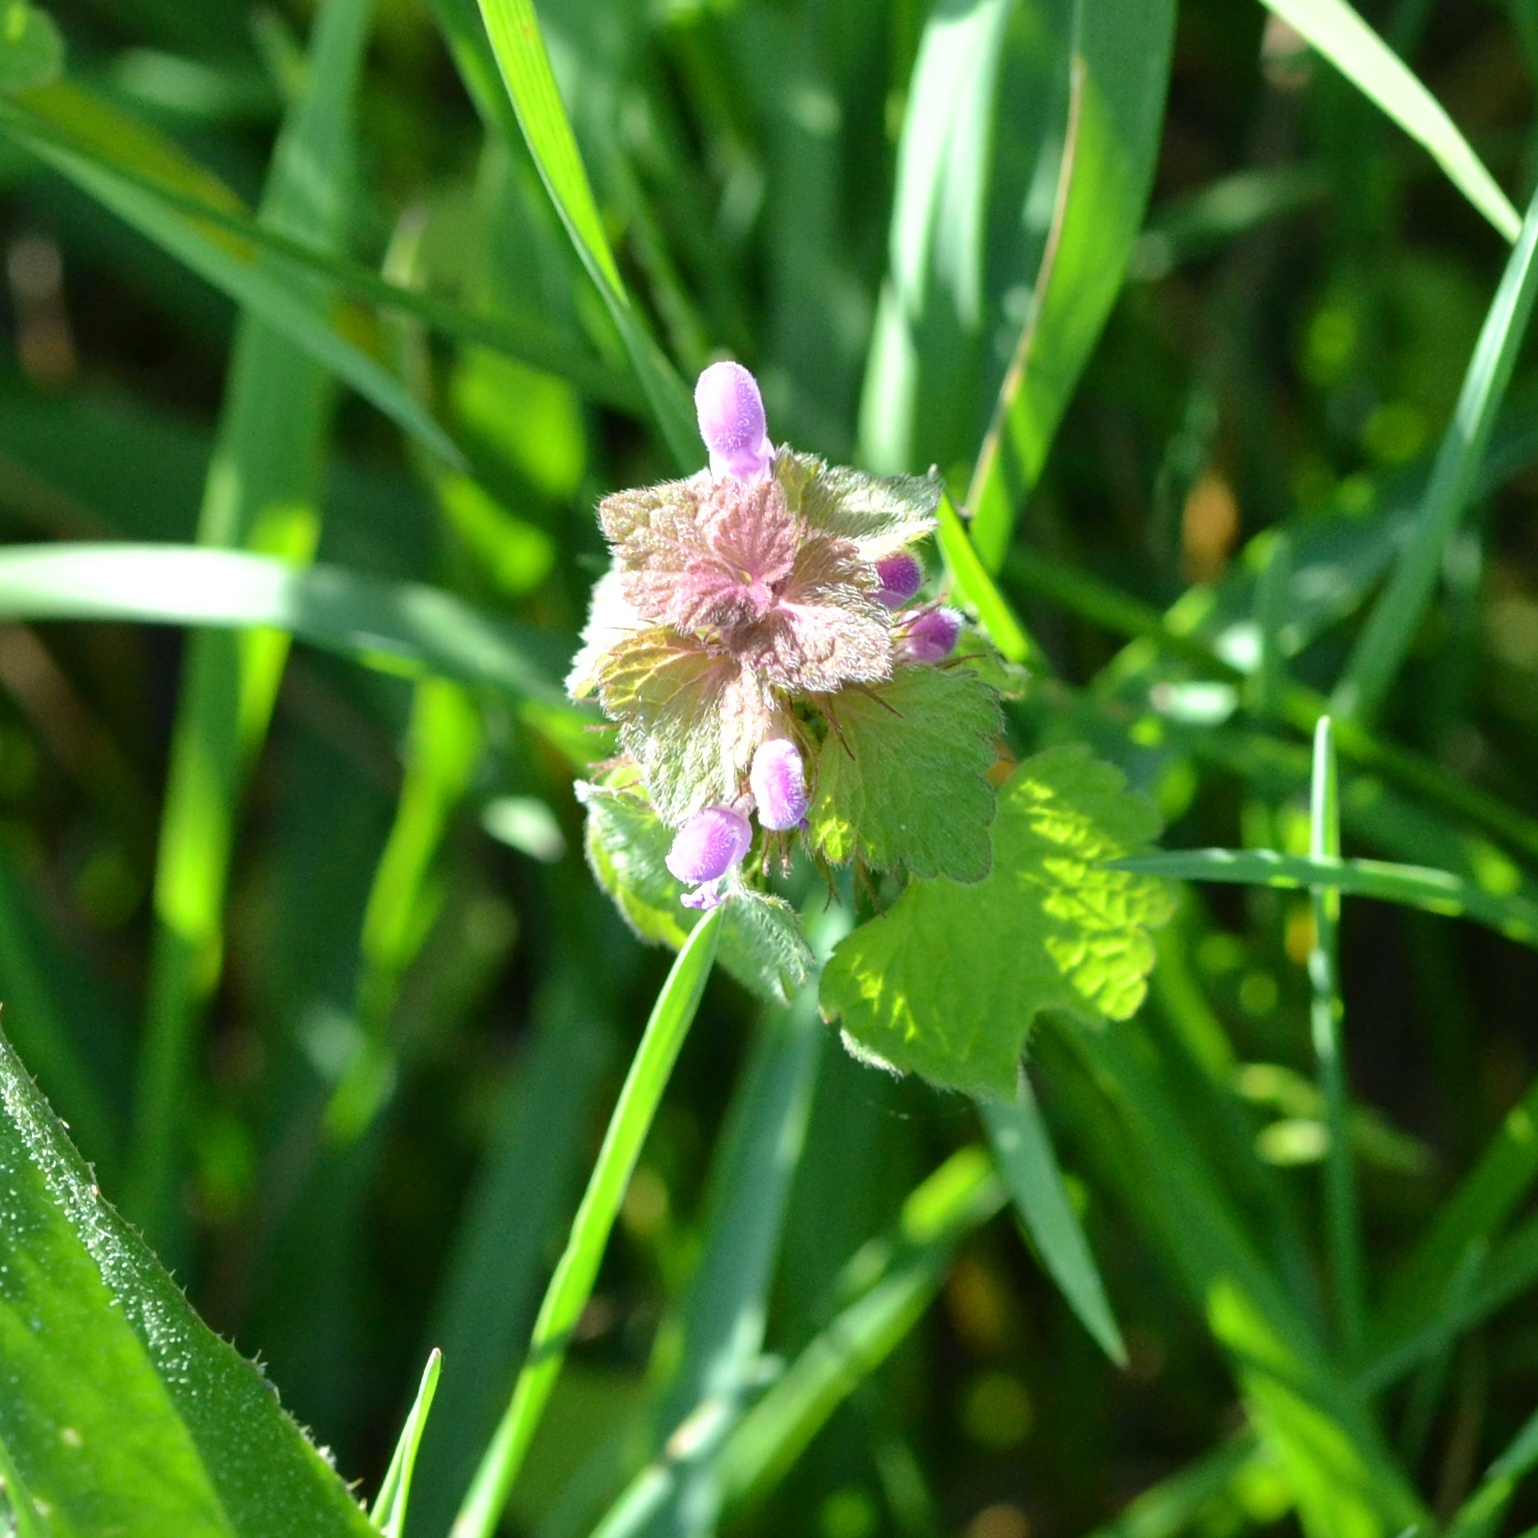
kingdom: Plantae
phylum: Tracheophyta
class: Magnoliopsida
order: Lamiales
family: Lamiaceae
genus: Lamium
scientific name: Lamium purpureum
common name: Red dead-nettle
